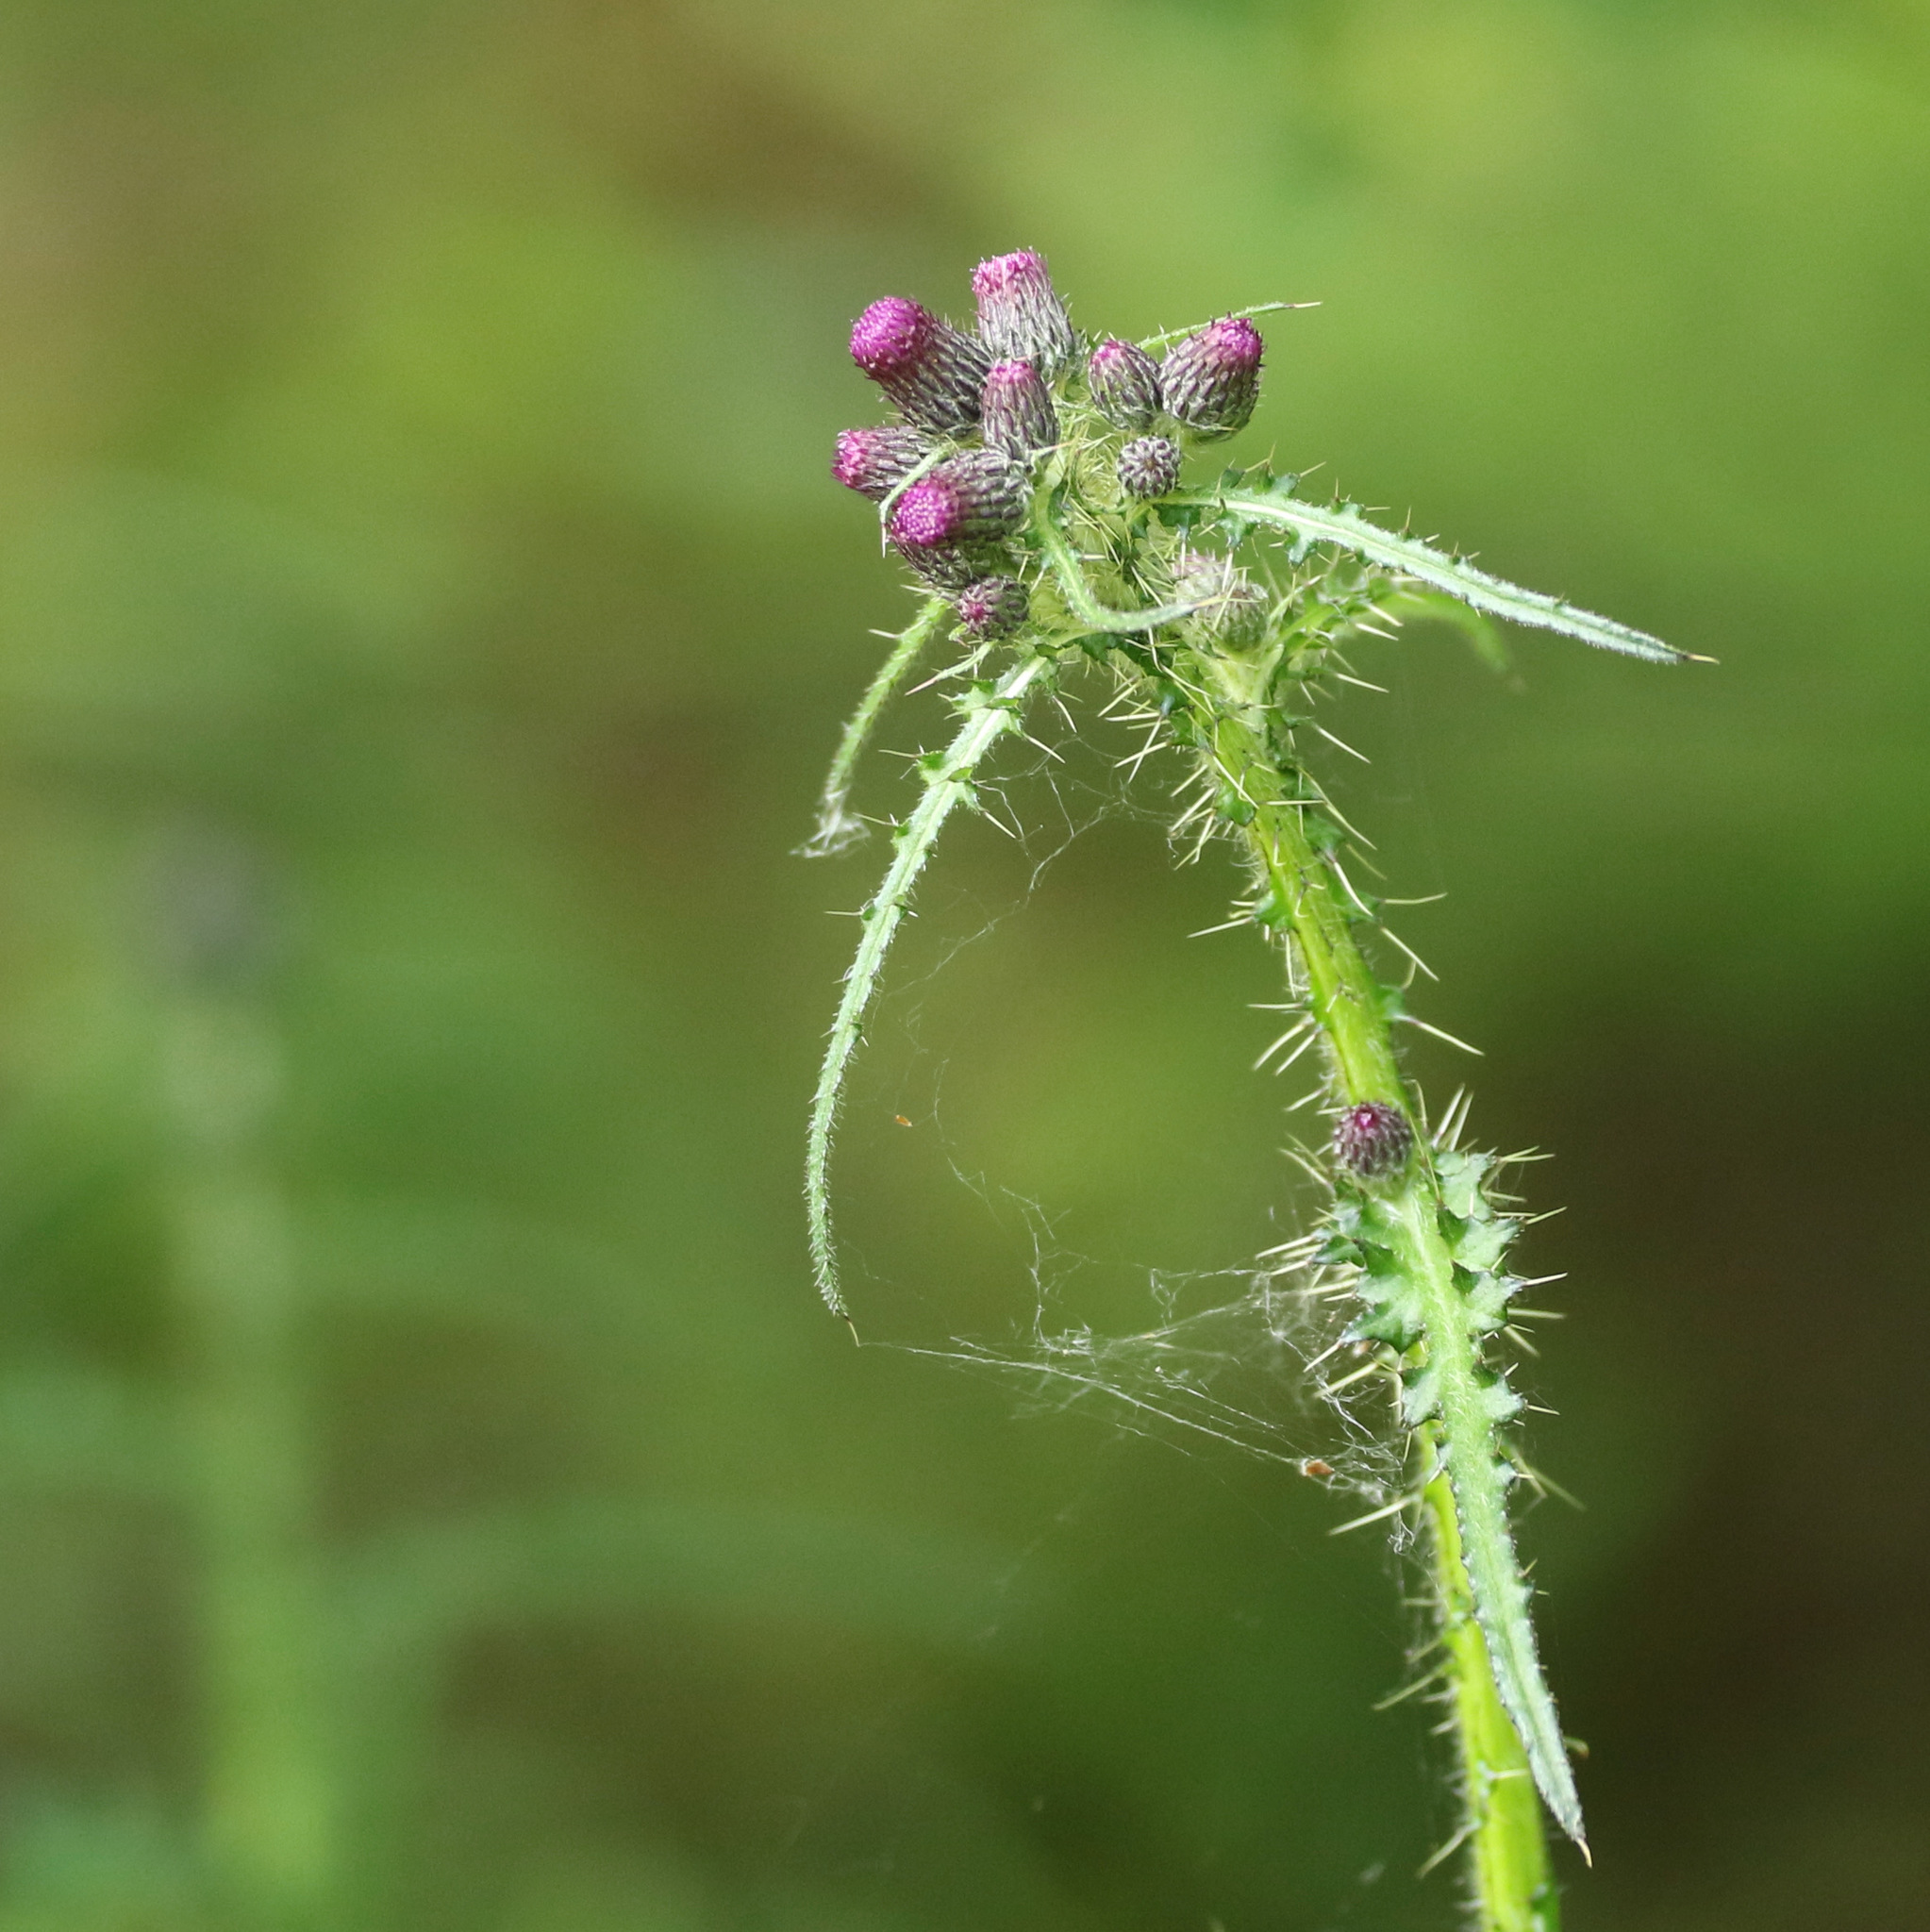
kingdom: Plantae
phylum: Tracheophyta
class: Magnoliopsida
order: Asterales
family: Asteraceae
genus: Cirsium
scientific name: Cirsium palustre
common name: Marsh thistle
